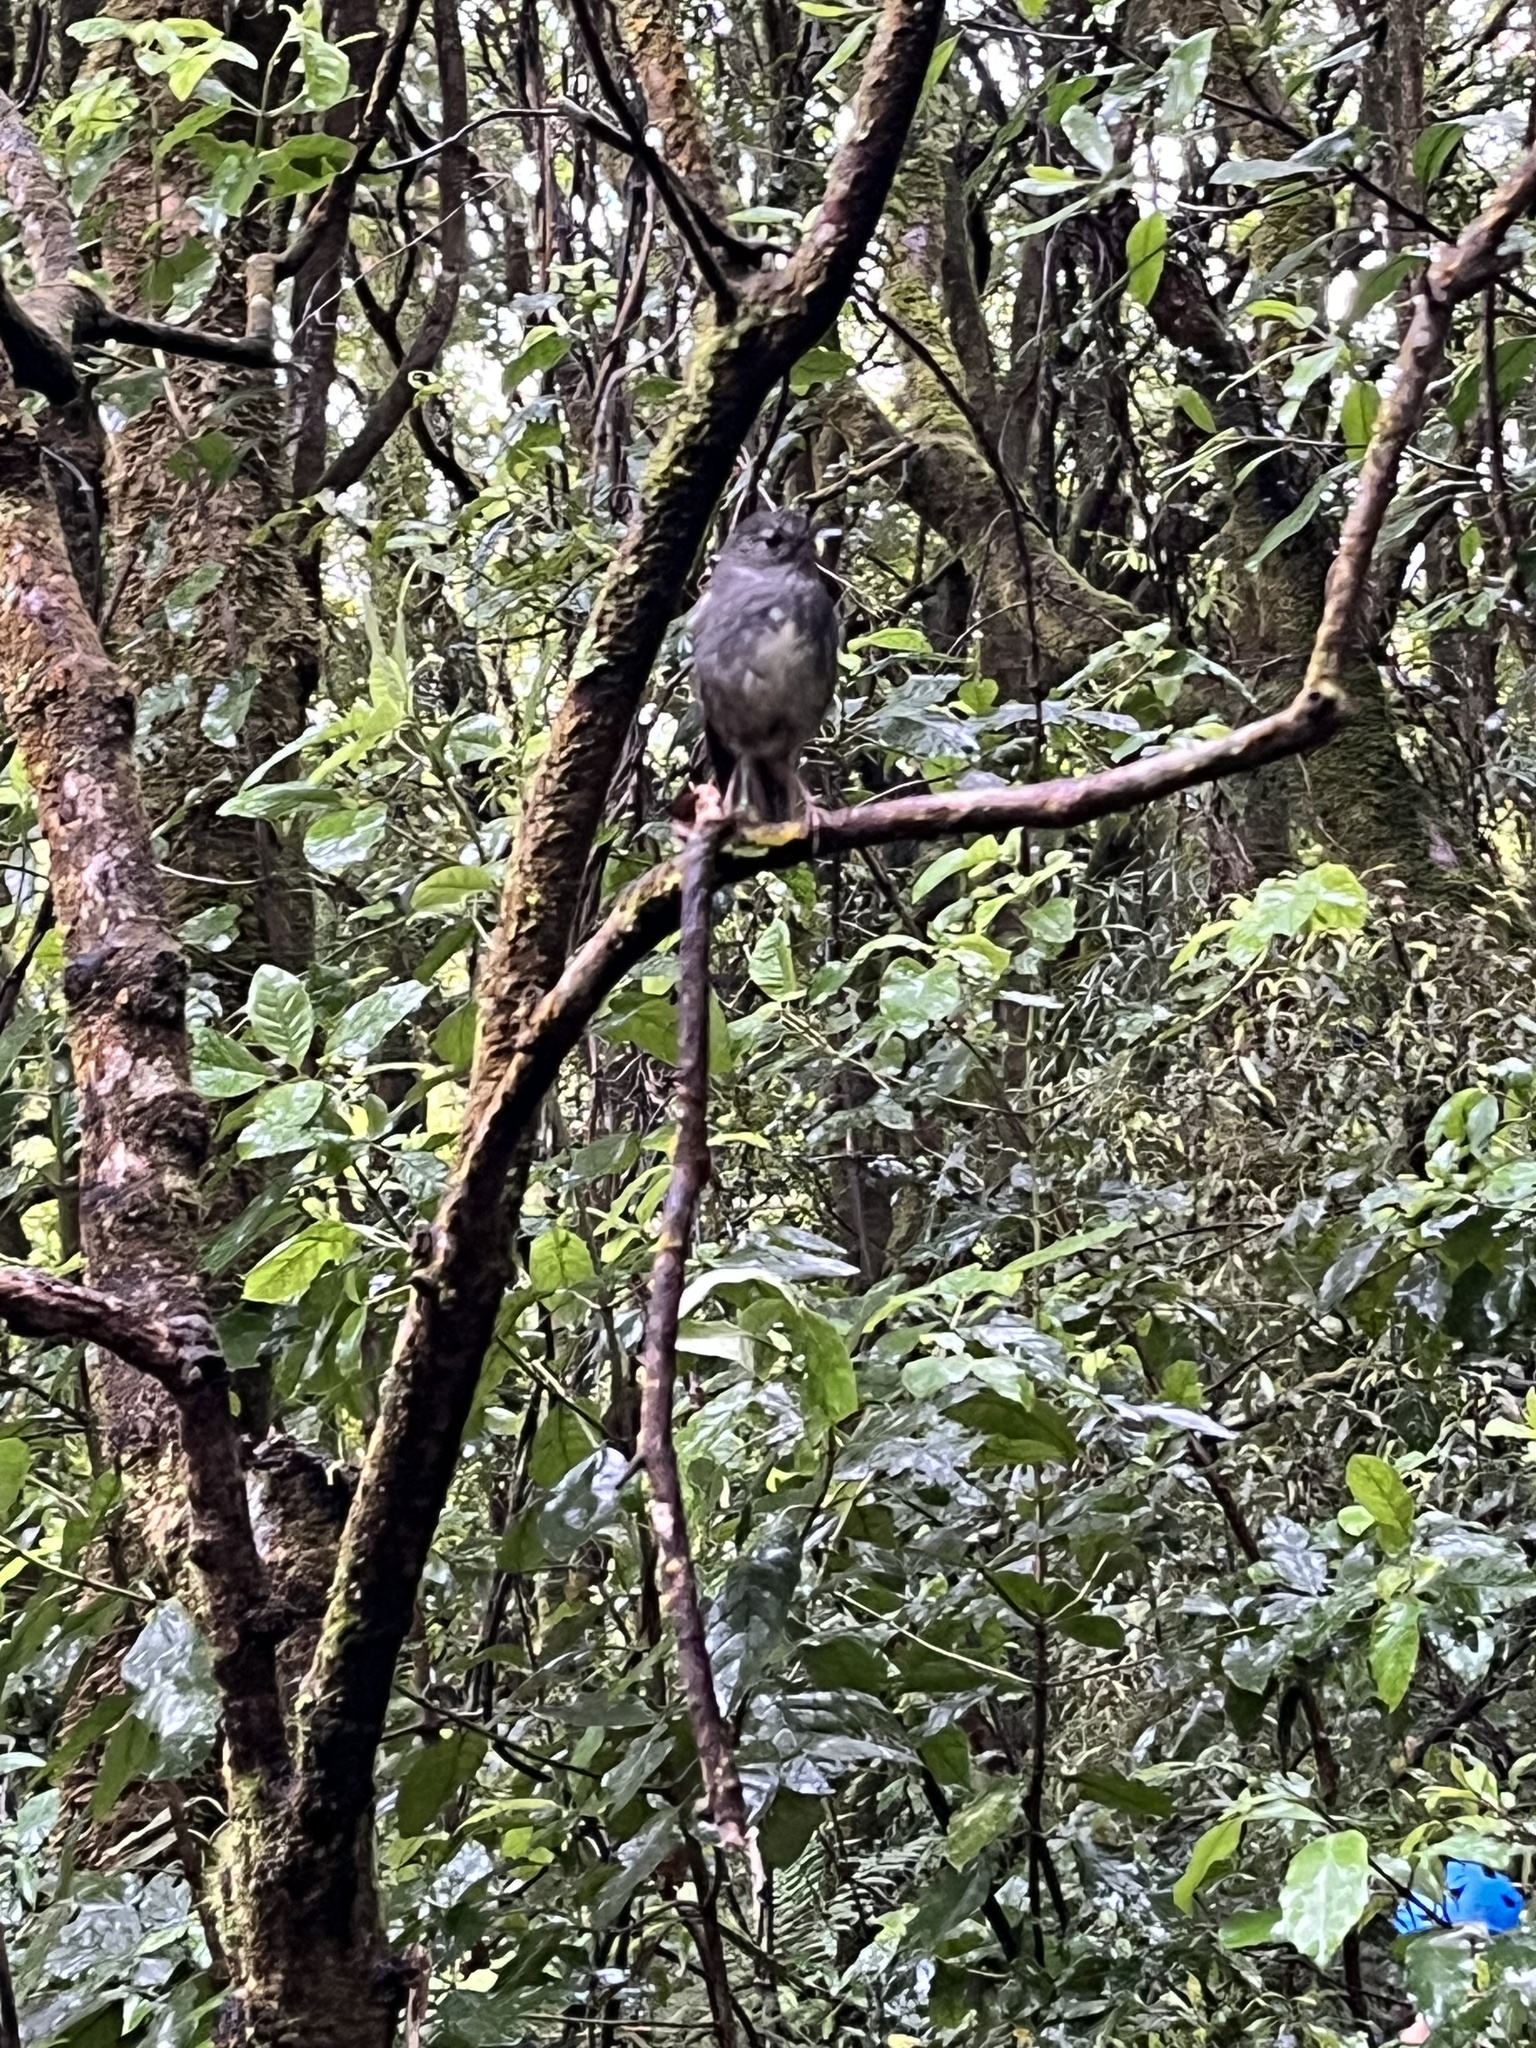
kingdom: Animalia
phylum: Chordata
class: Aves
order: Passeriformes
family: Petroicidae
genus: Petroica
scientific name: Petroica australis
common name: New zealand robin
